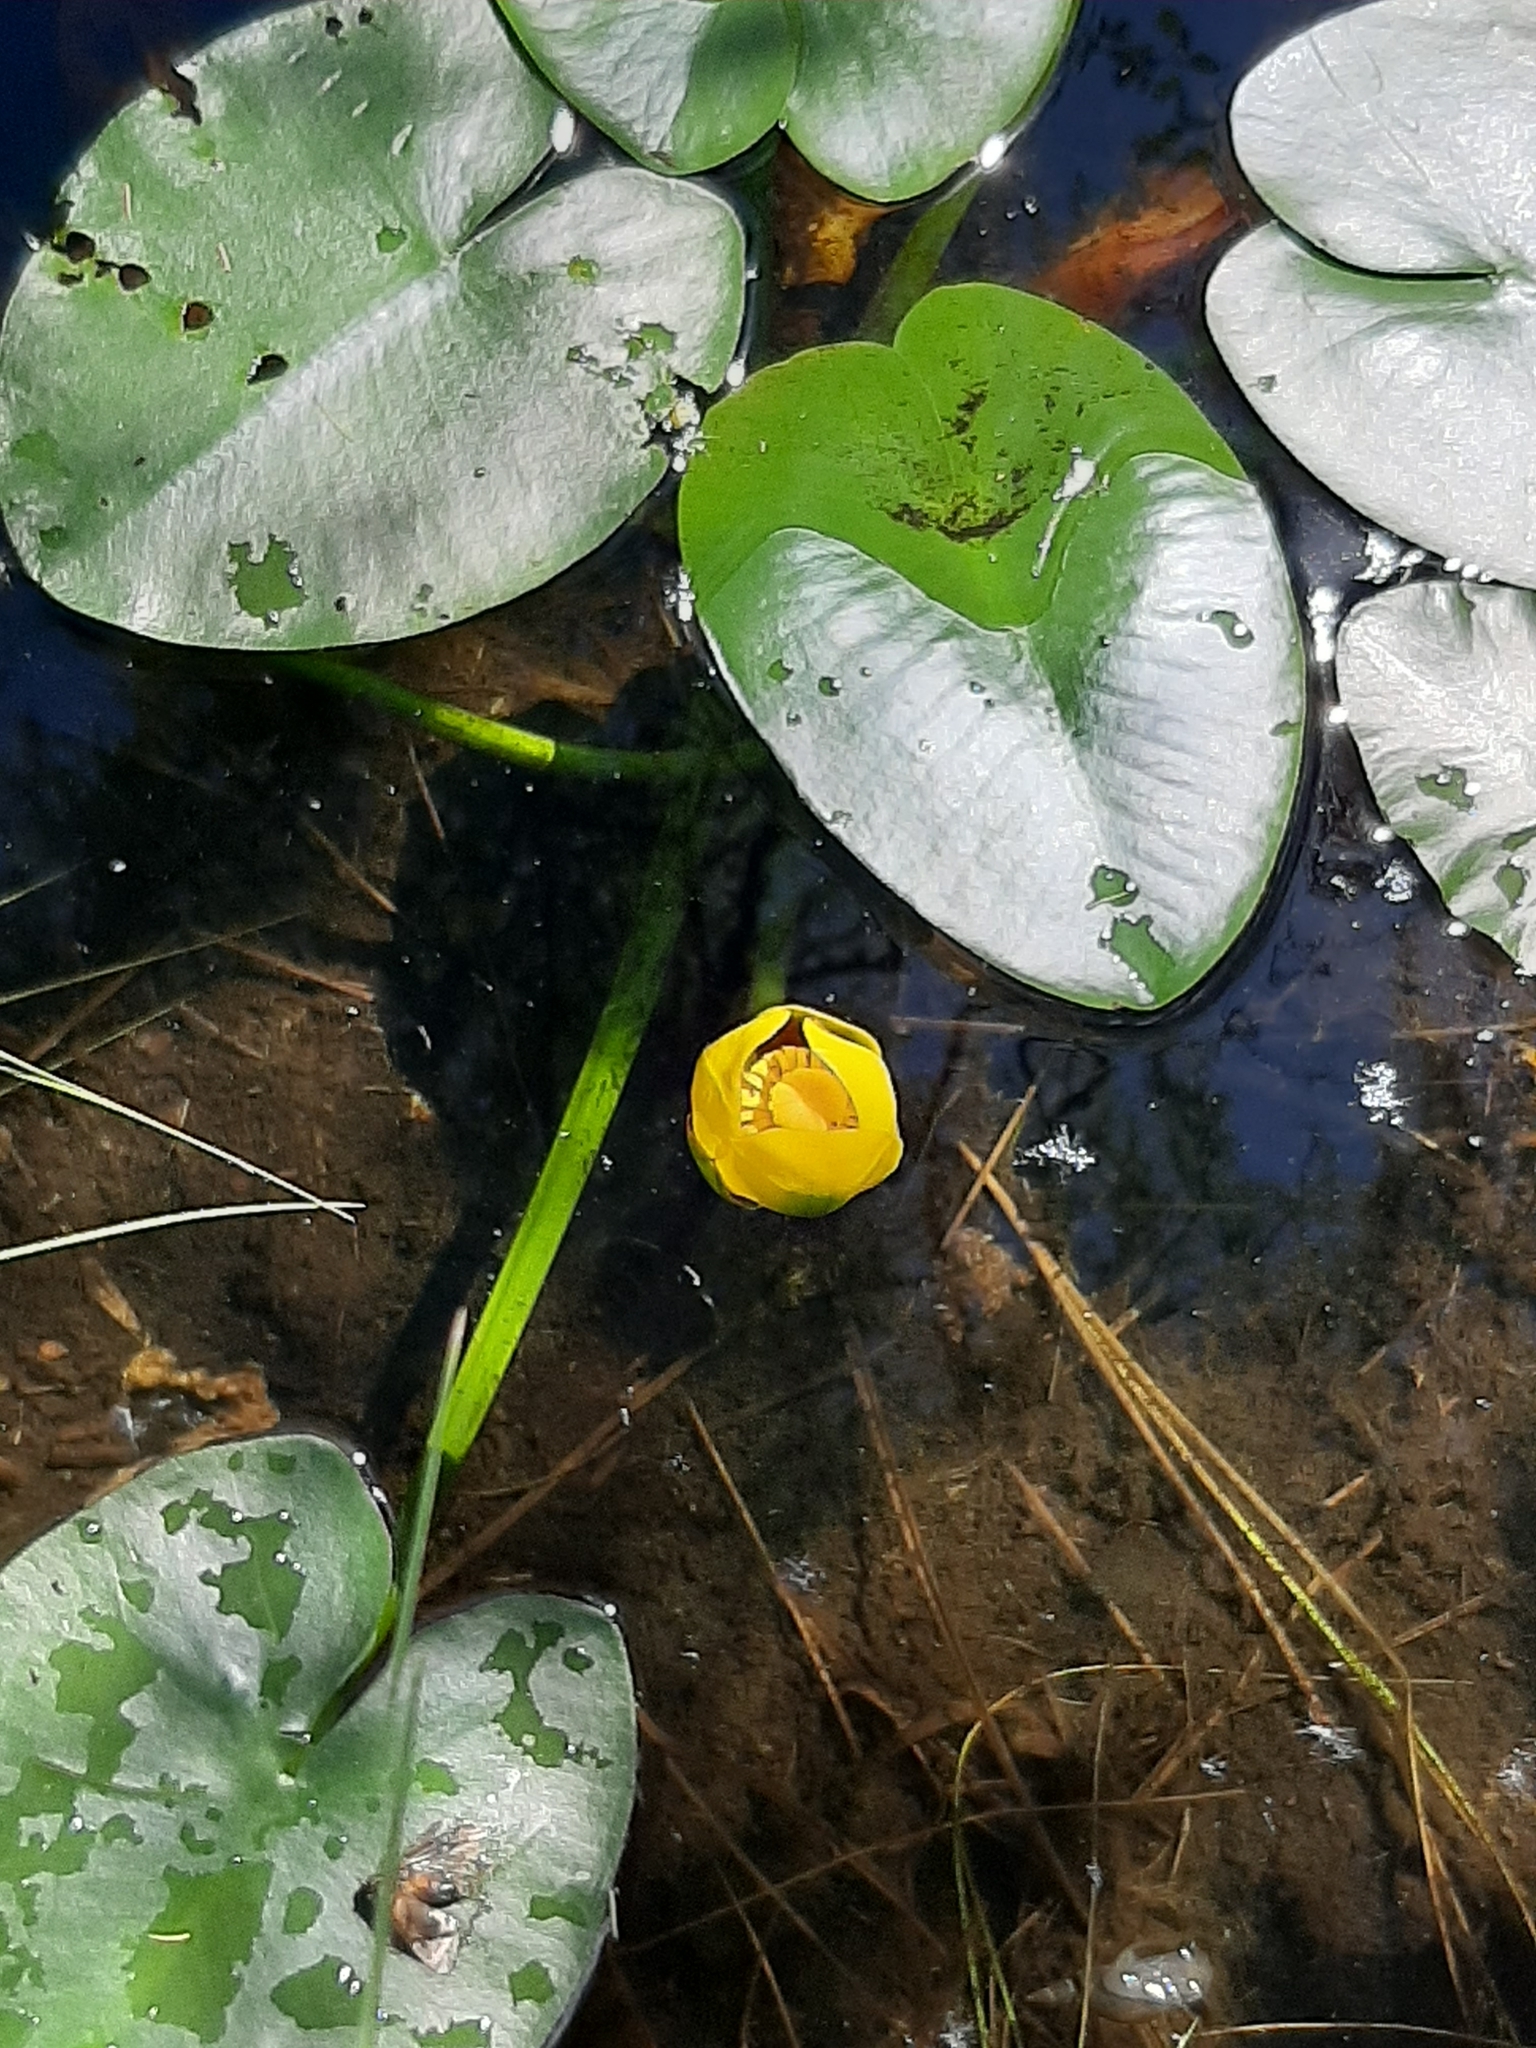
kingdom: Plantae
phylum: Tracheophyta
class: Magnoliopsida
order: Nymphaeales
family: Nymphaeaceae
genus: Nuphar
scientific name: Nuphar variegata
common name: Beaver-root
